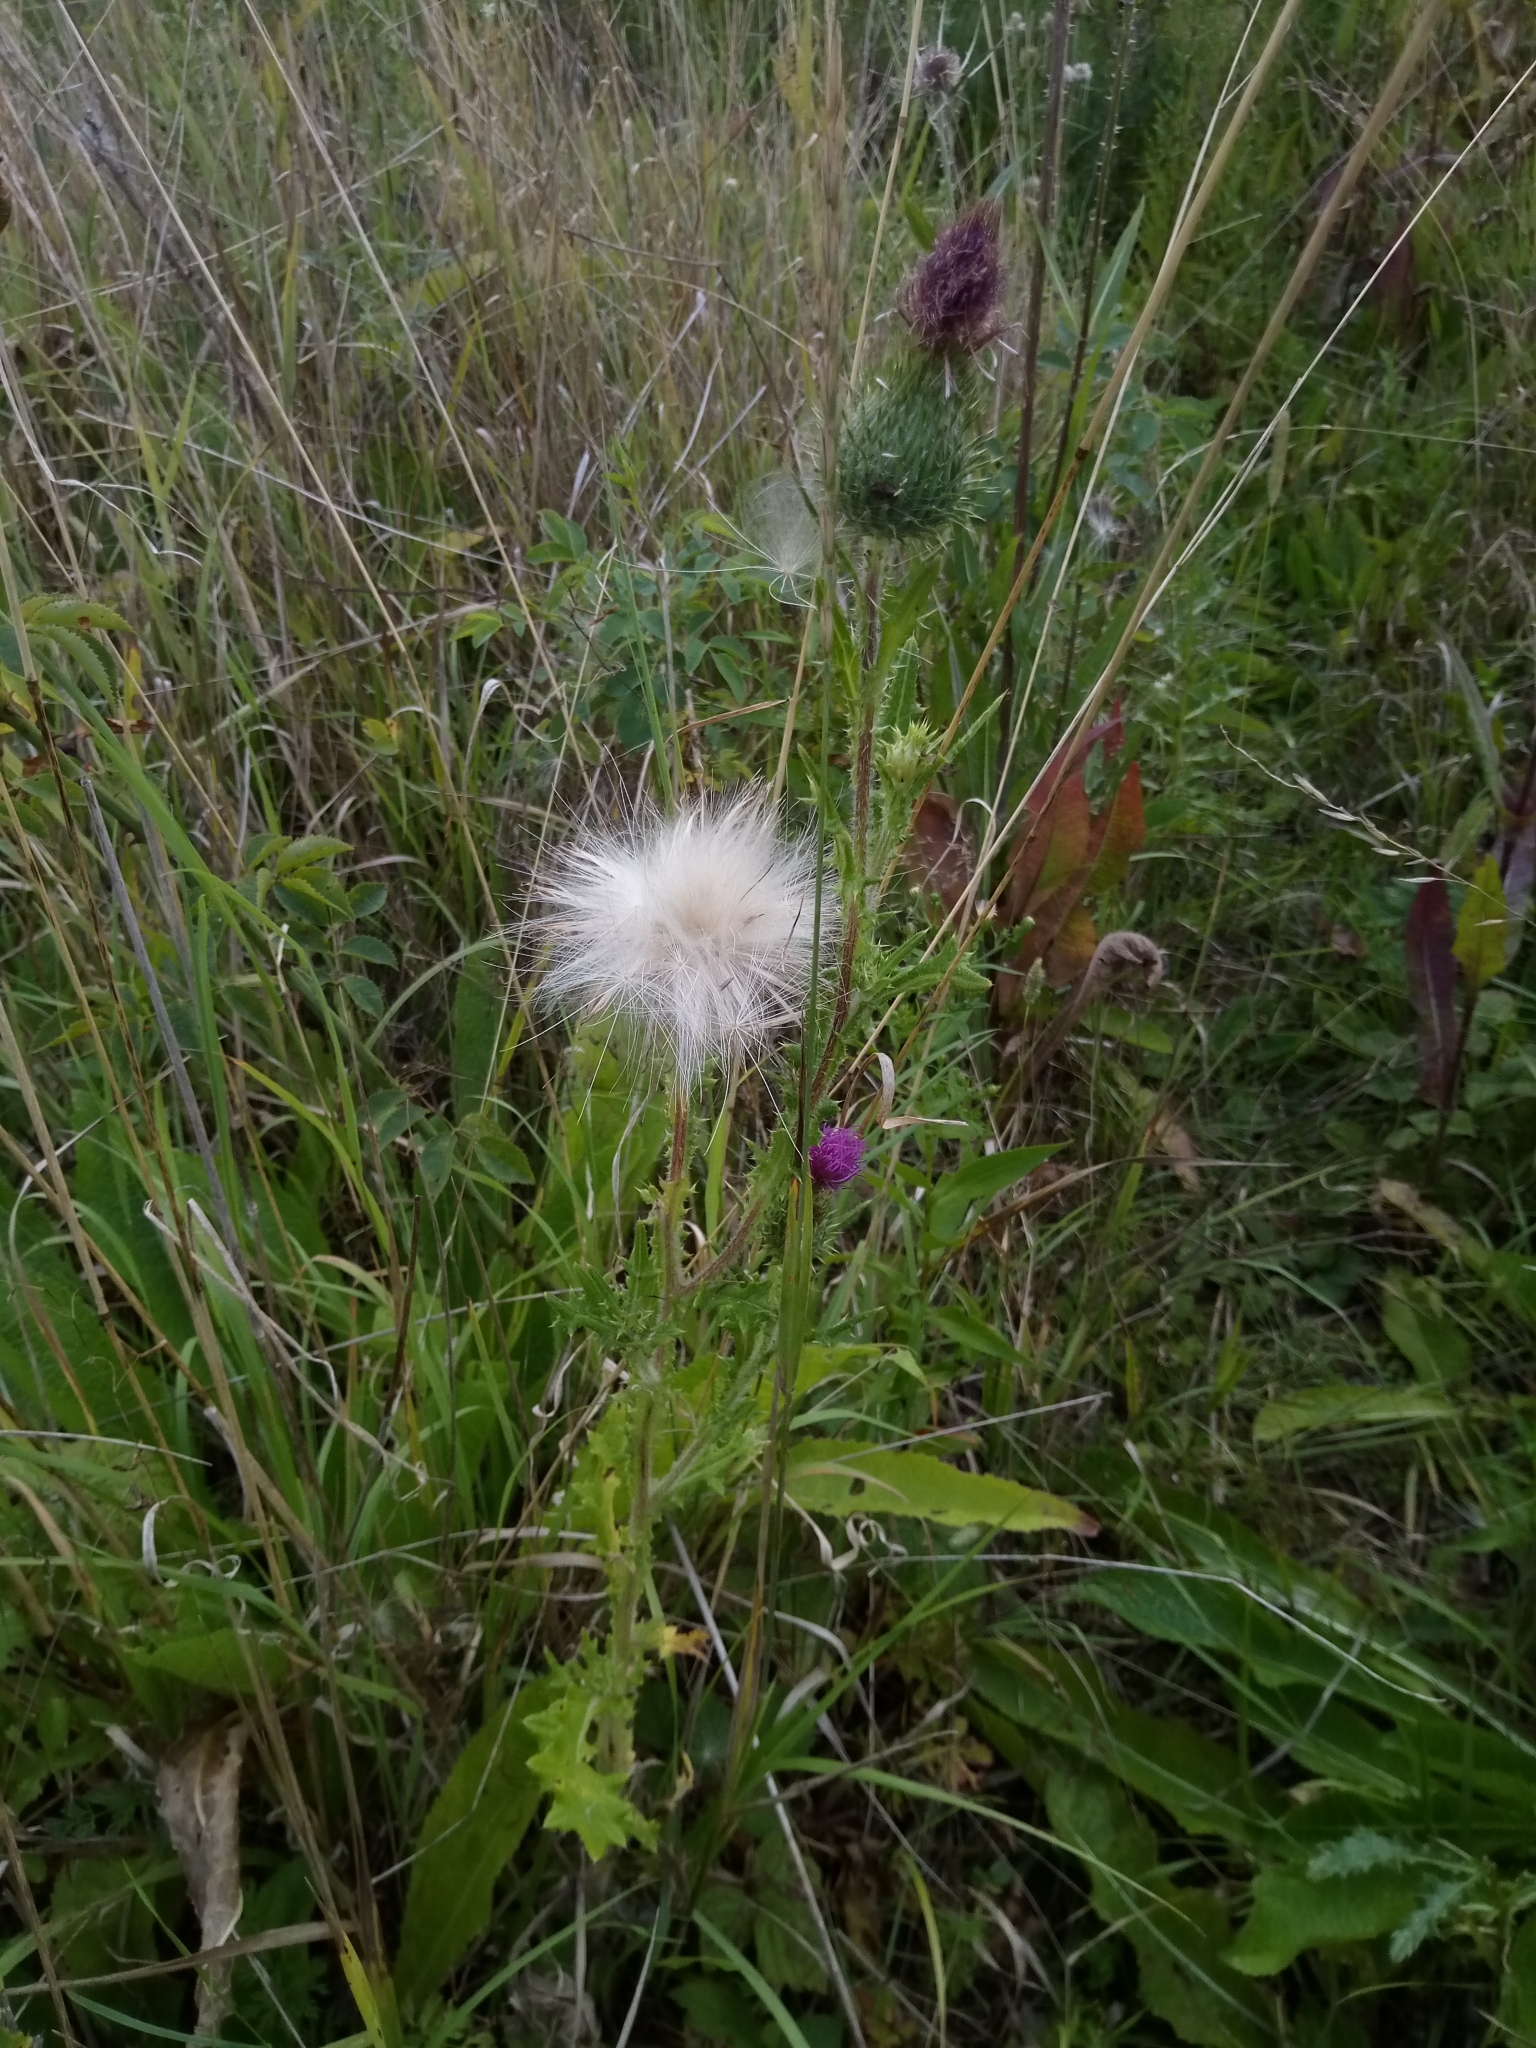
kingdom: Plantae
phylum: Tracheophyta
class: Magnoliopsida
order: Asterales
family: Asteraceae
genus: Cirsium
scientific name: Cirsium vulgare
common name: Bull thistle
